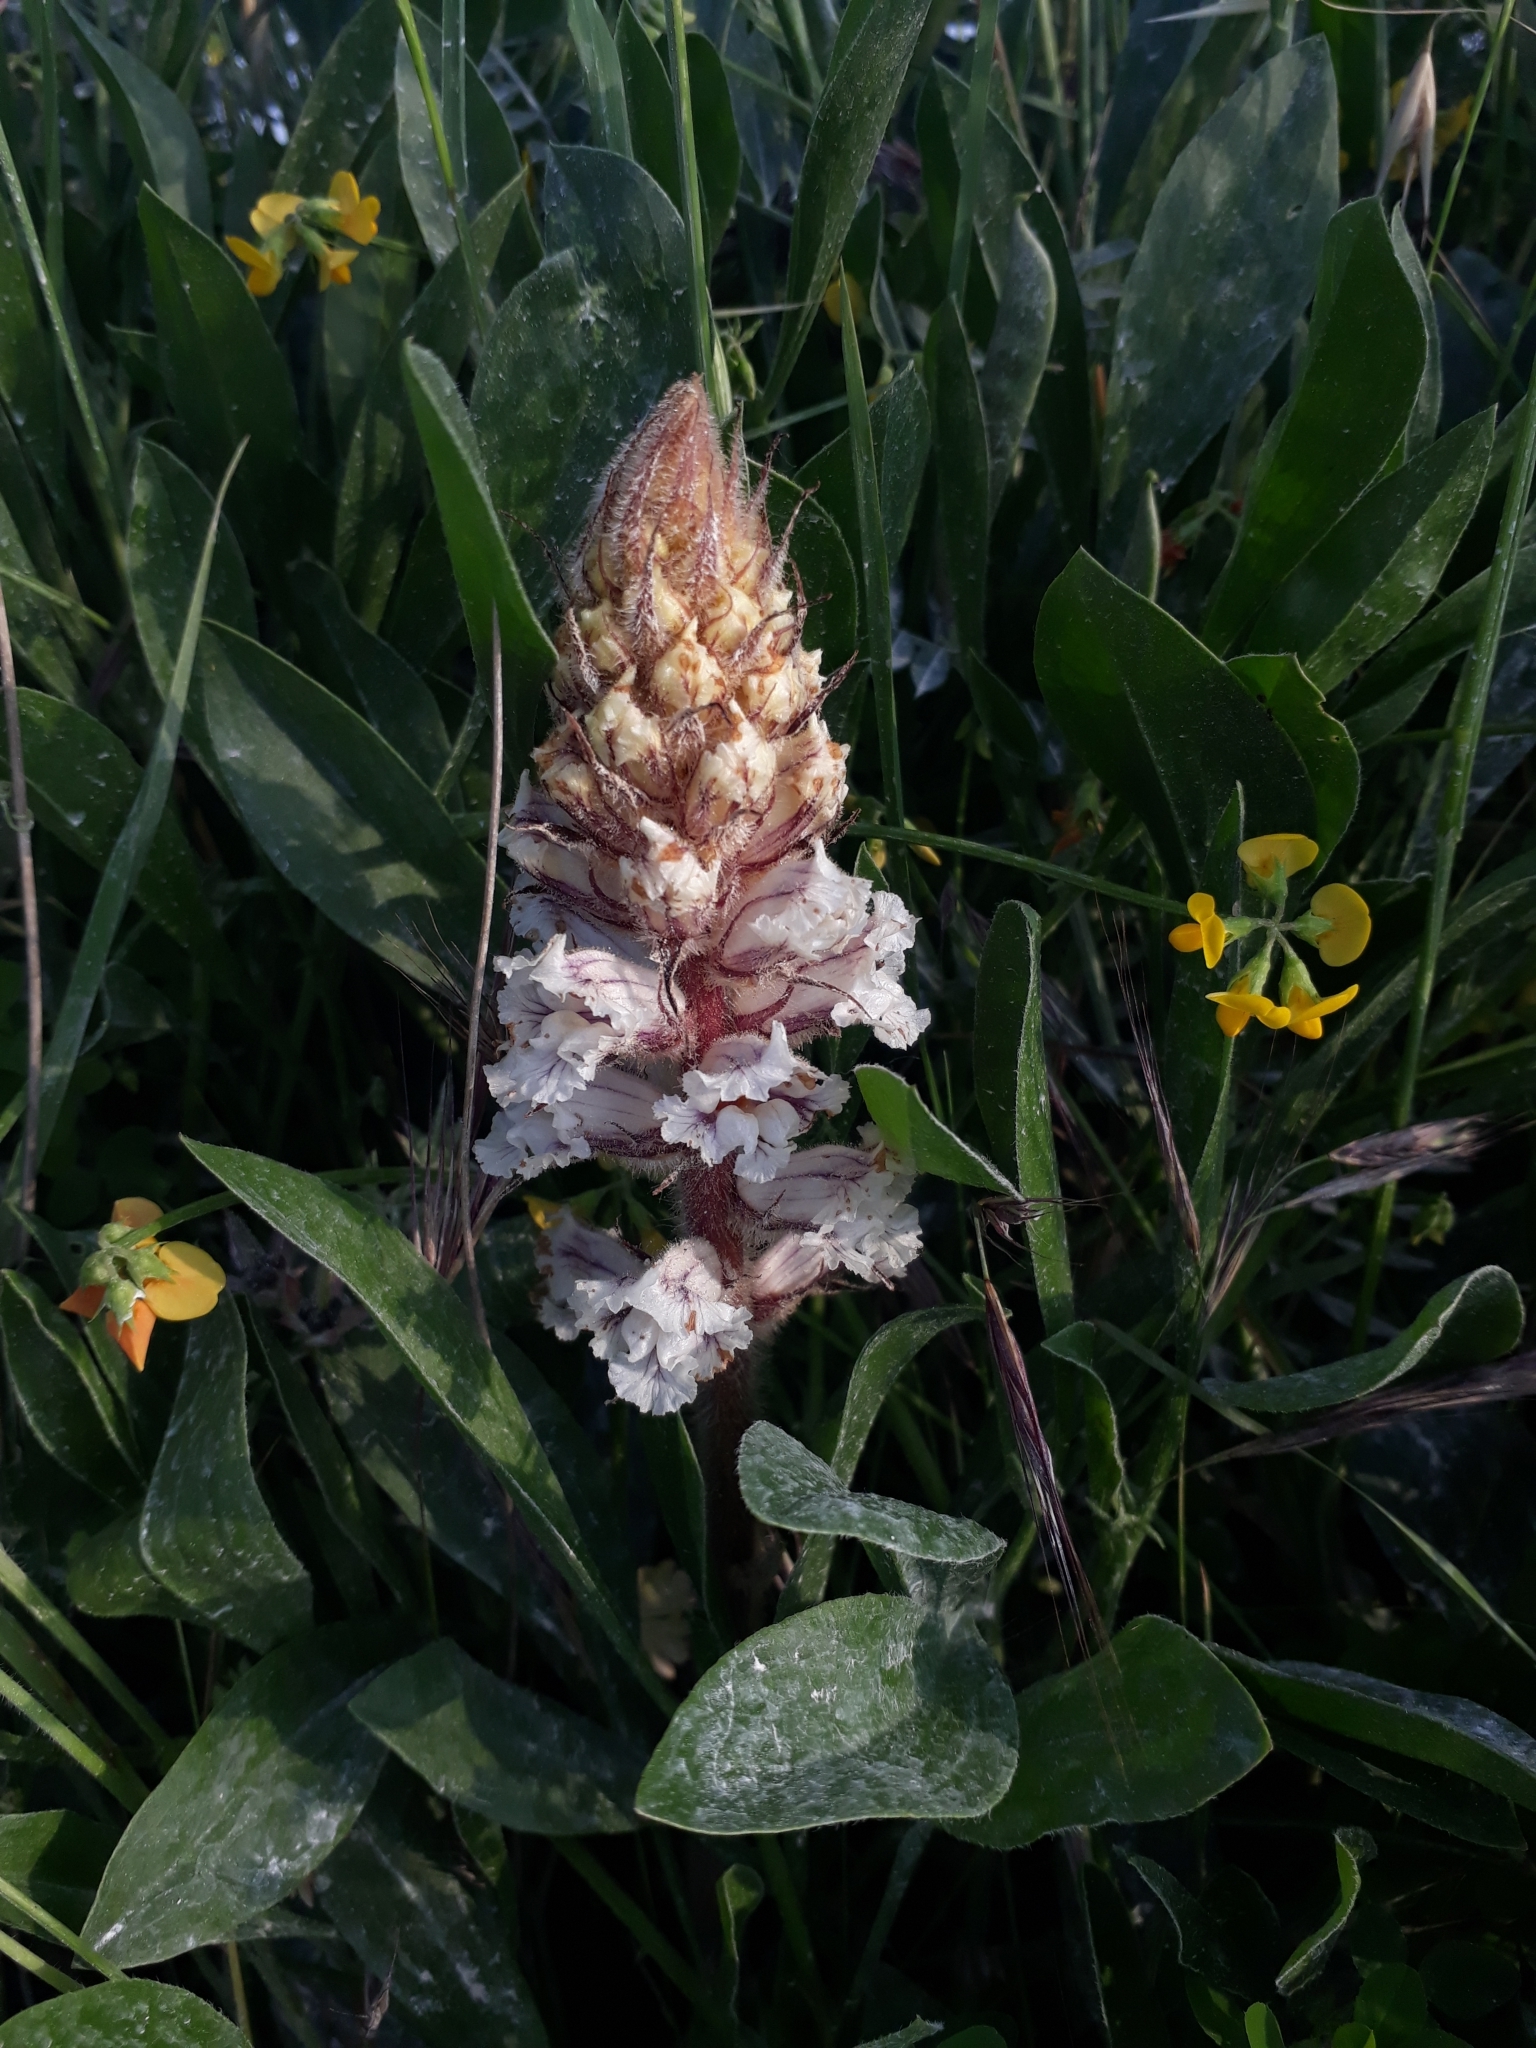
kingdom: Plantae
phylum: Tracheophyta
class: Magnoliopsida
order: Lamiales
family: Orobanchaceae
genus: Orobanche
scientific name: Orobanche crenata
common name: Bean broomrape
